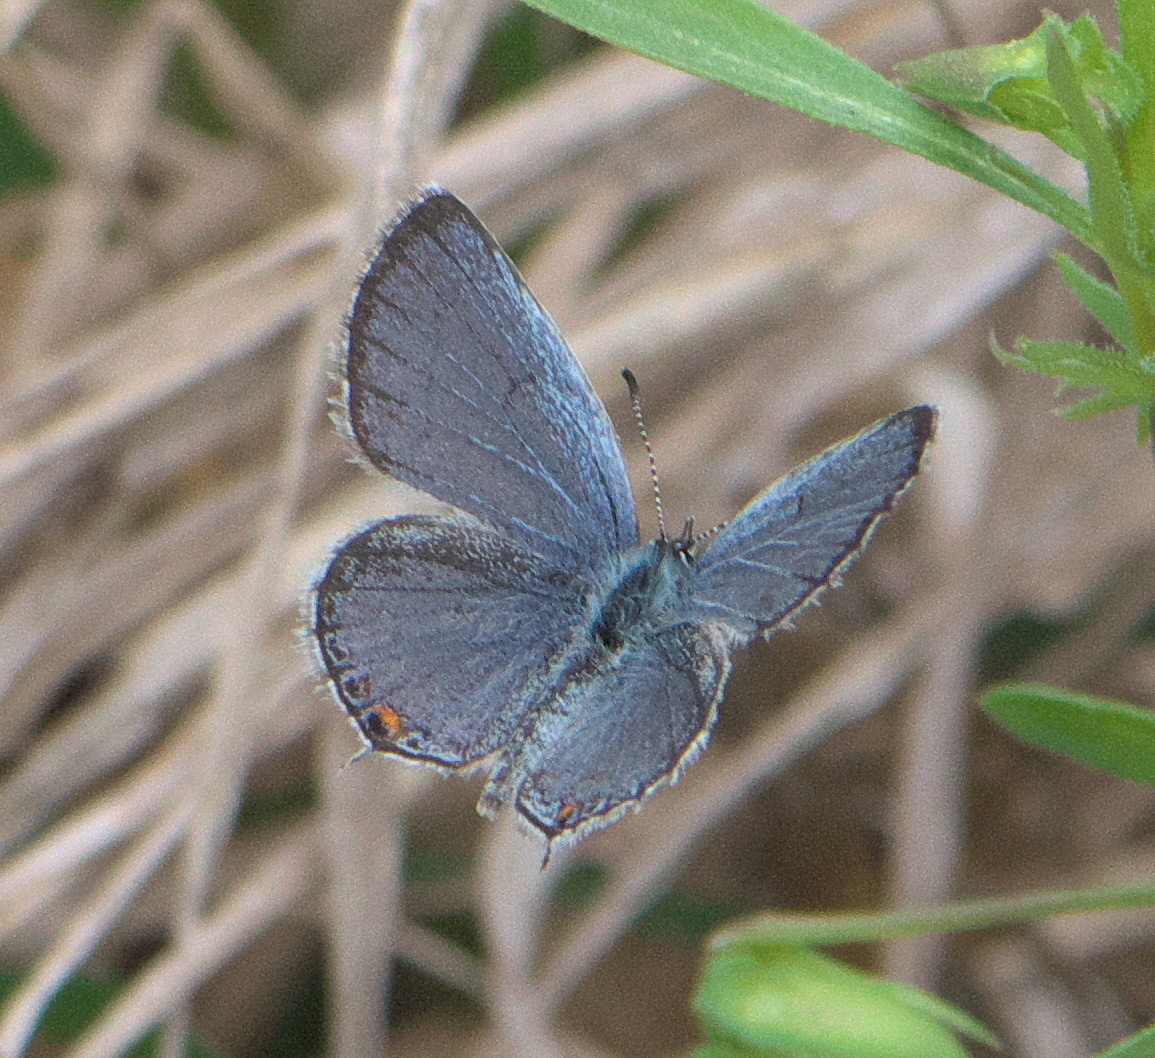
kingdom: Animalia
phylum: Arthropoda
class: Insecta
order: Lepidoptera
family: Lycaenidae
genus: Elkalyce
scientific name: Elkalyce comyntas
